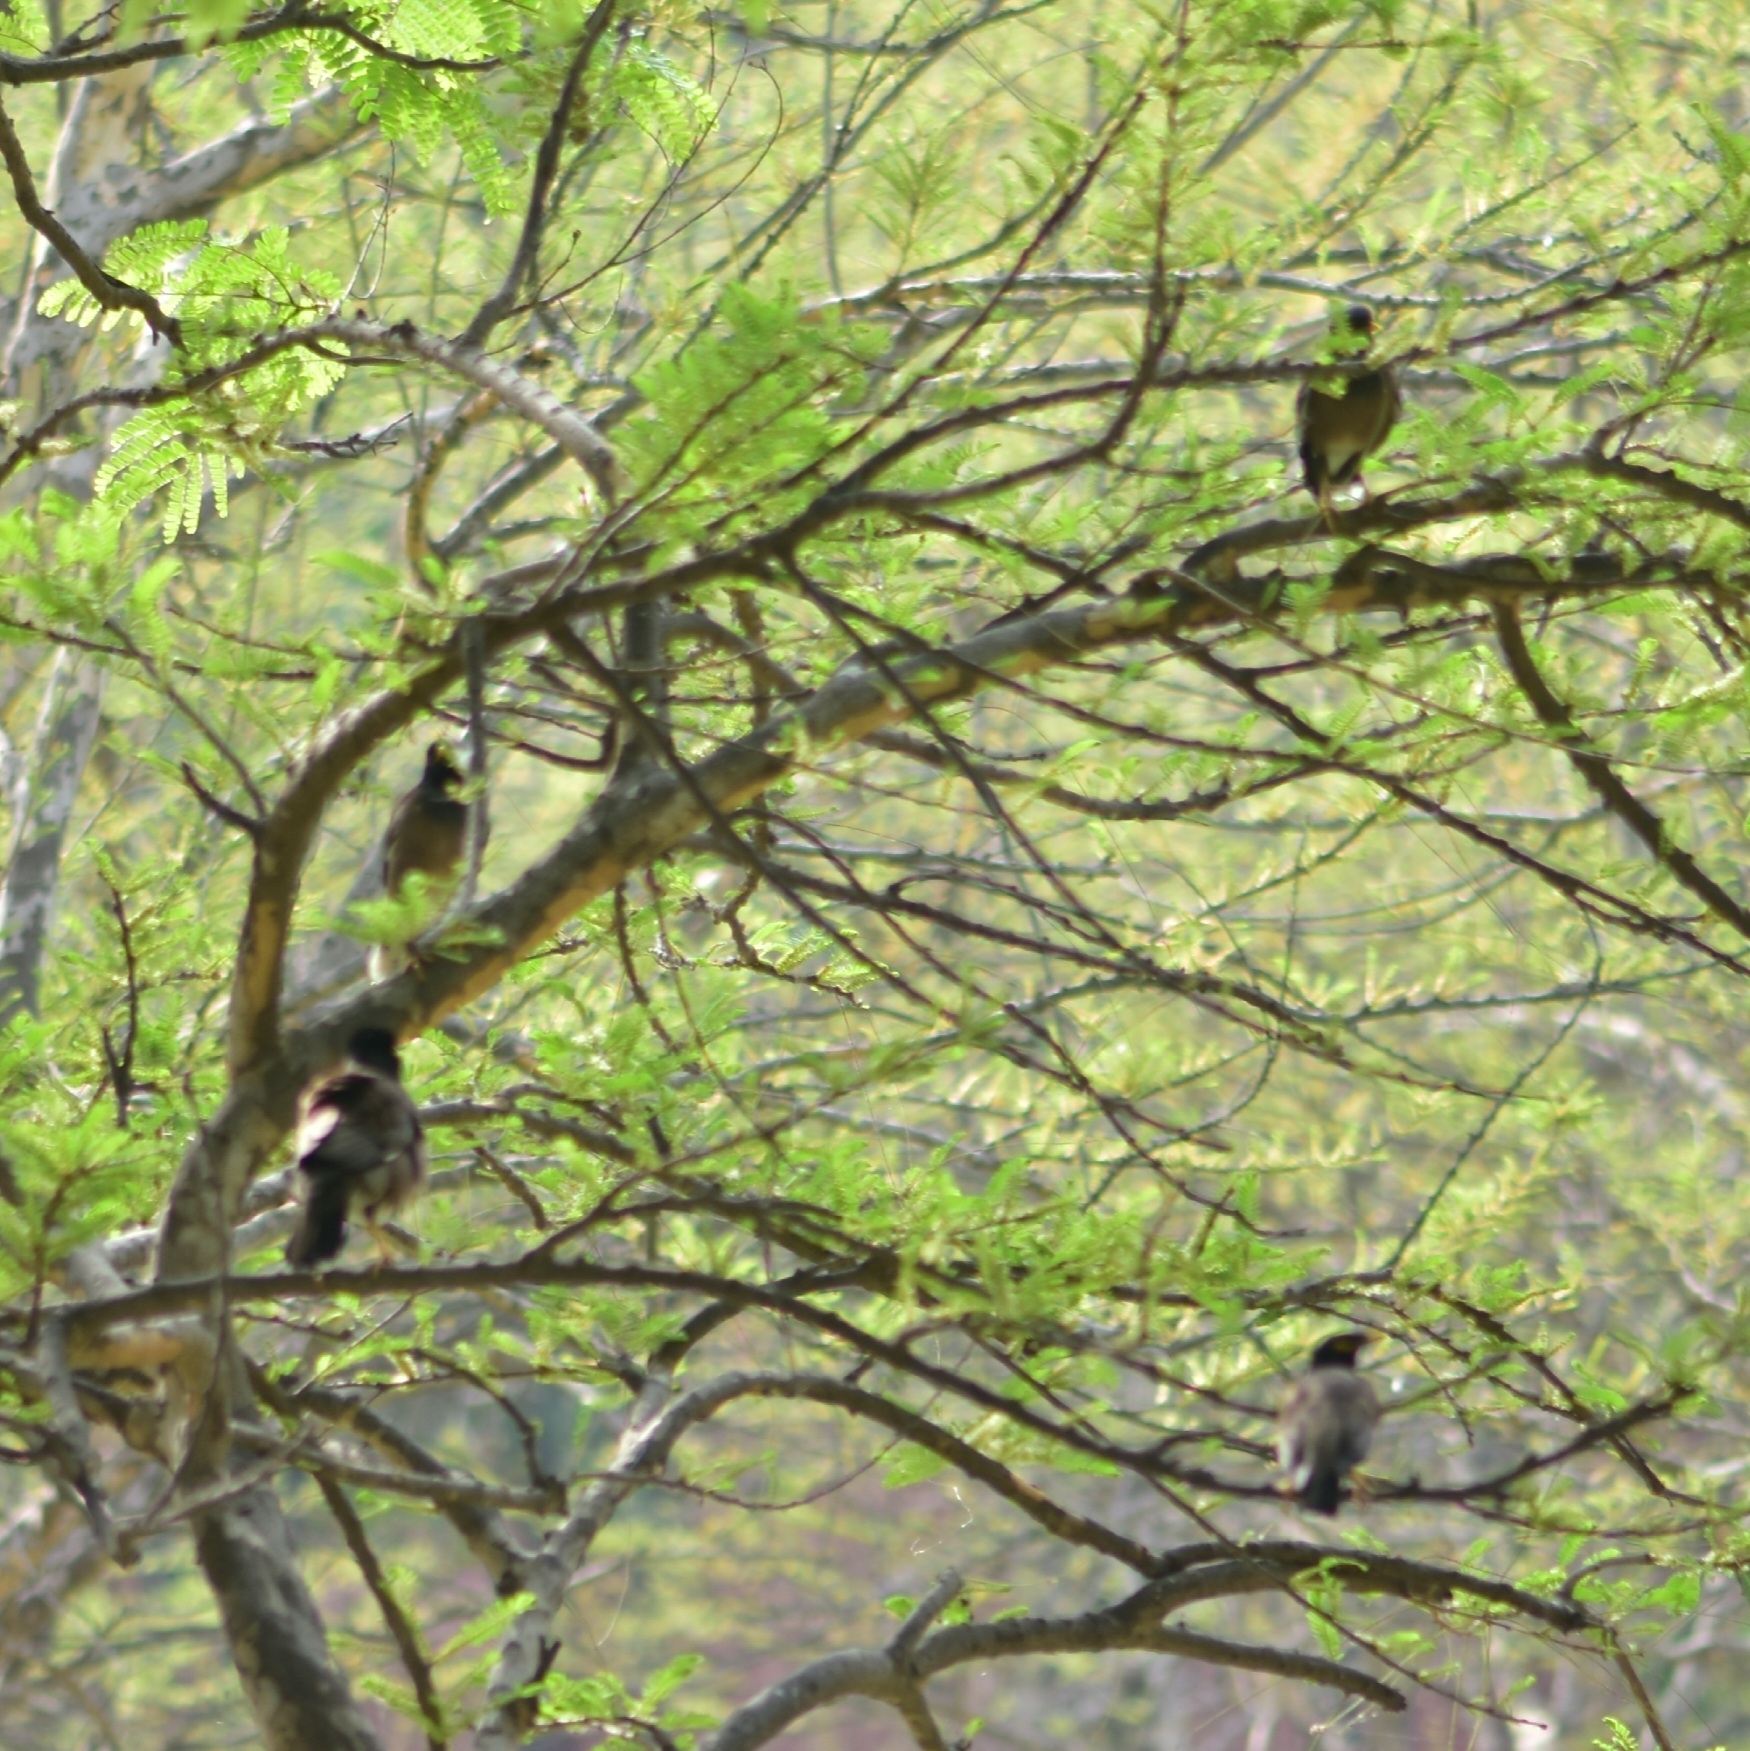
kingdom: Animalia
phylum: Chordata
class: Aves
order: Passeriformes
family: Sturnidae
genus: Acridotheres
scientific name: Acridotheres tristis
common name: Common myna
